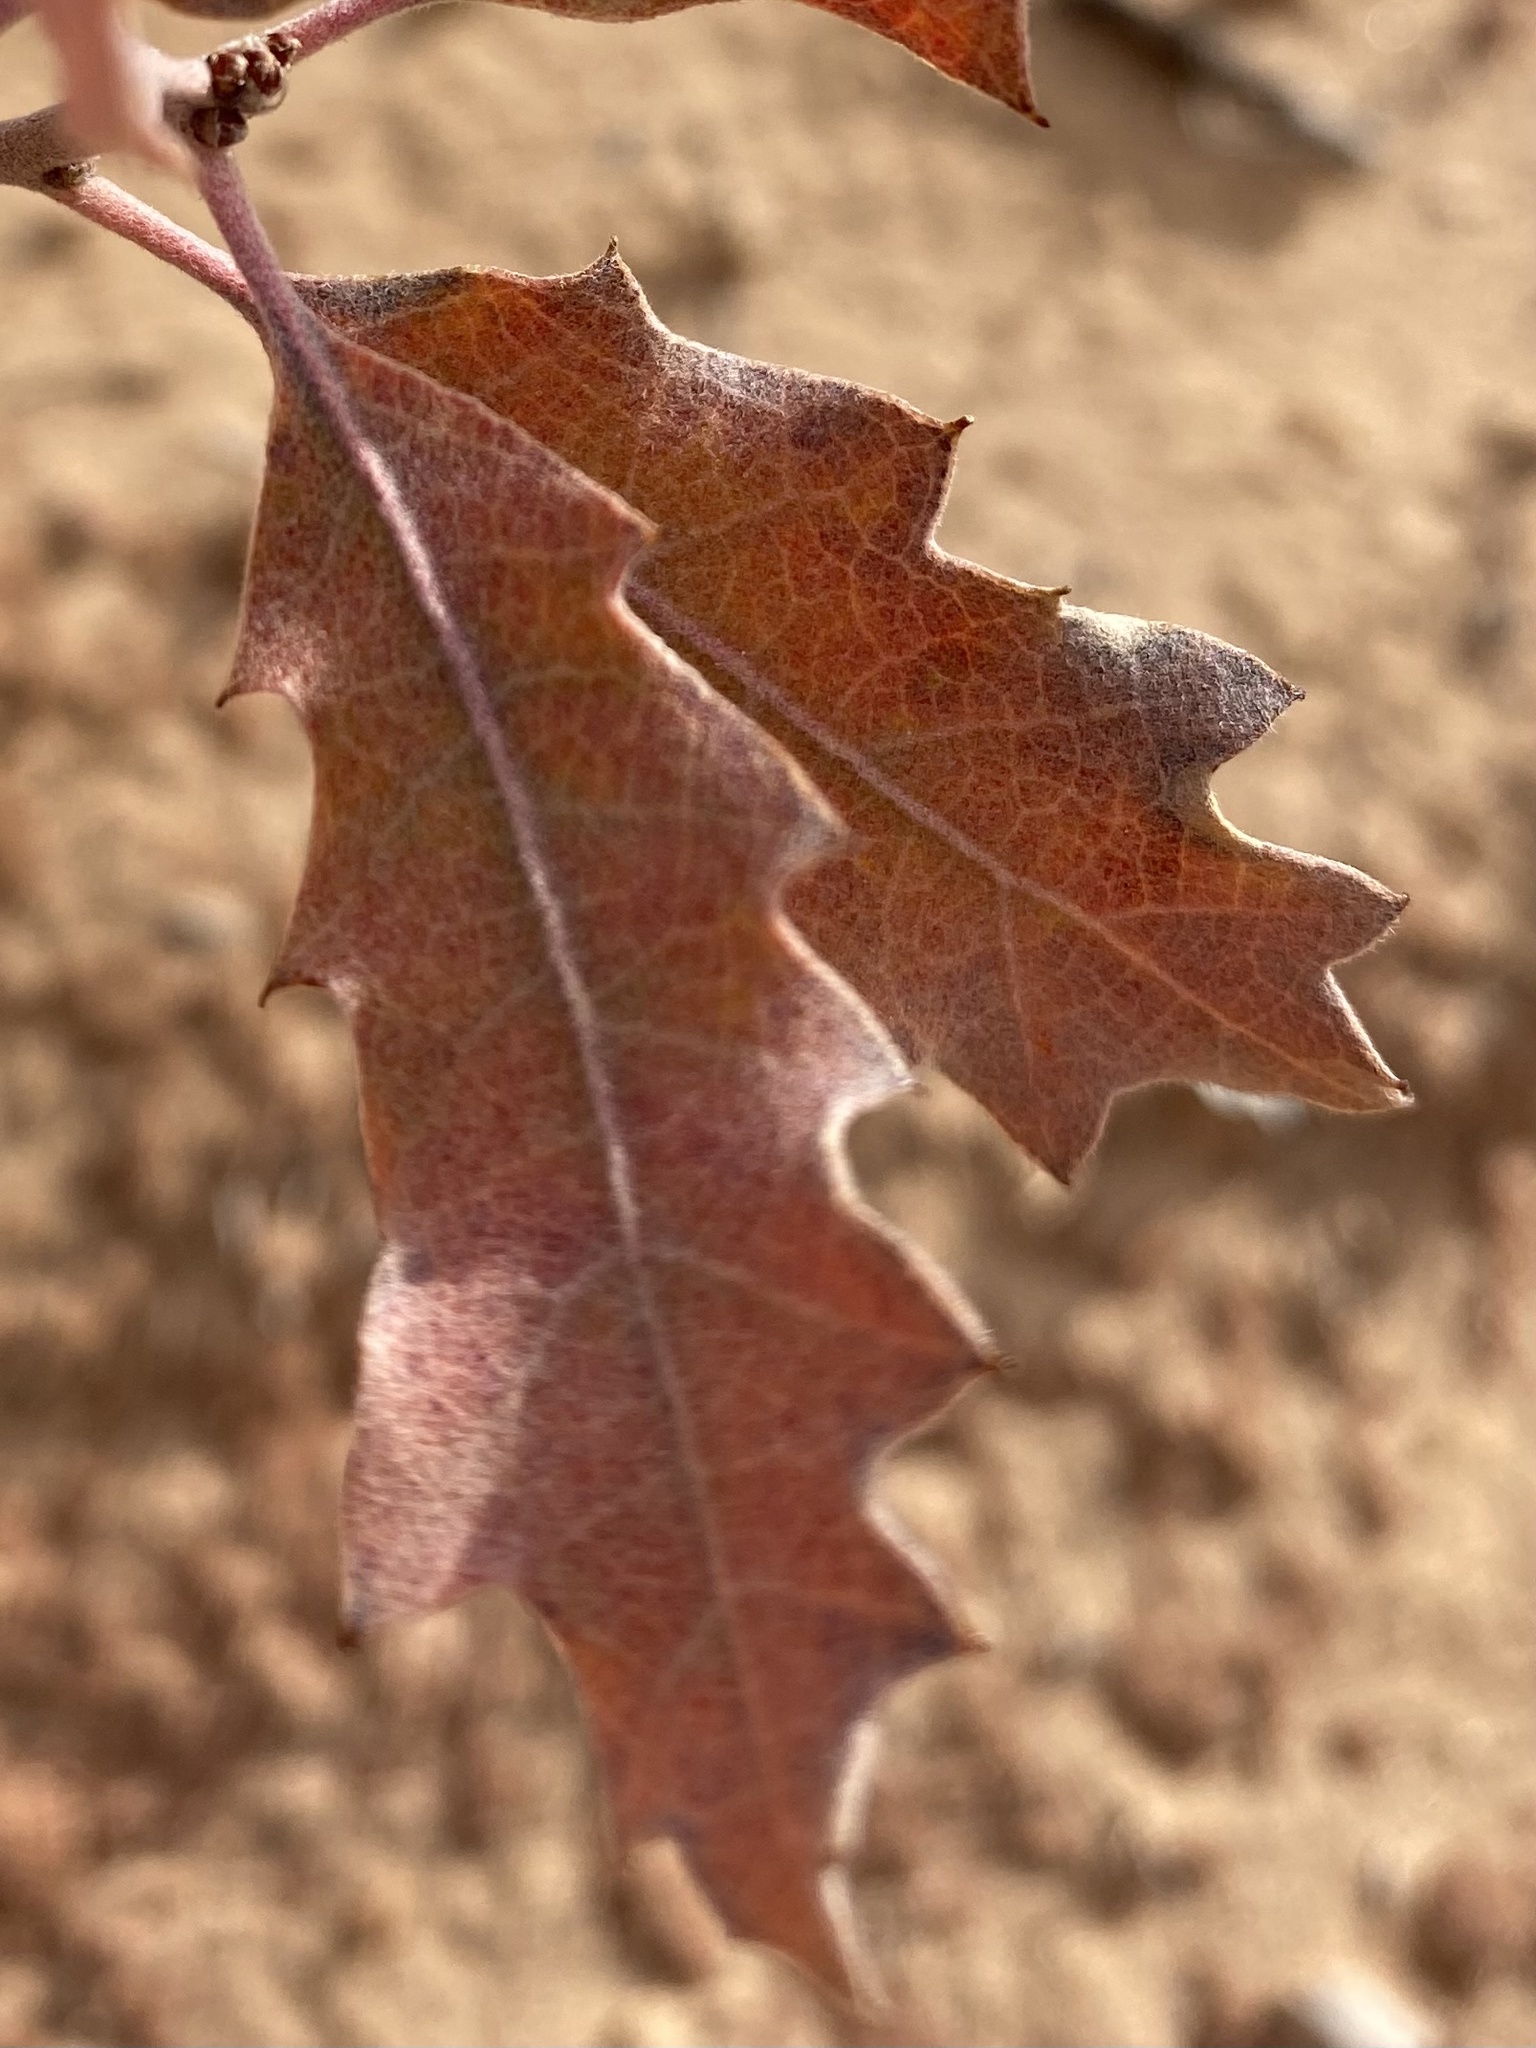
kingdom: Plantae
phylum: Tracheophyta
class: Magnoliopsida
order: Fagales
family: Fagaceae
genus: Quercus
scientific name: Quercus welshii
